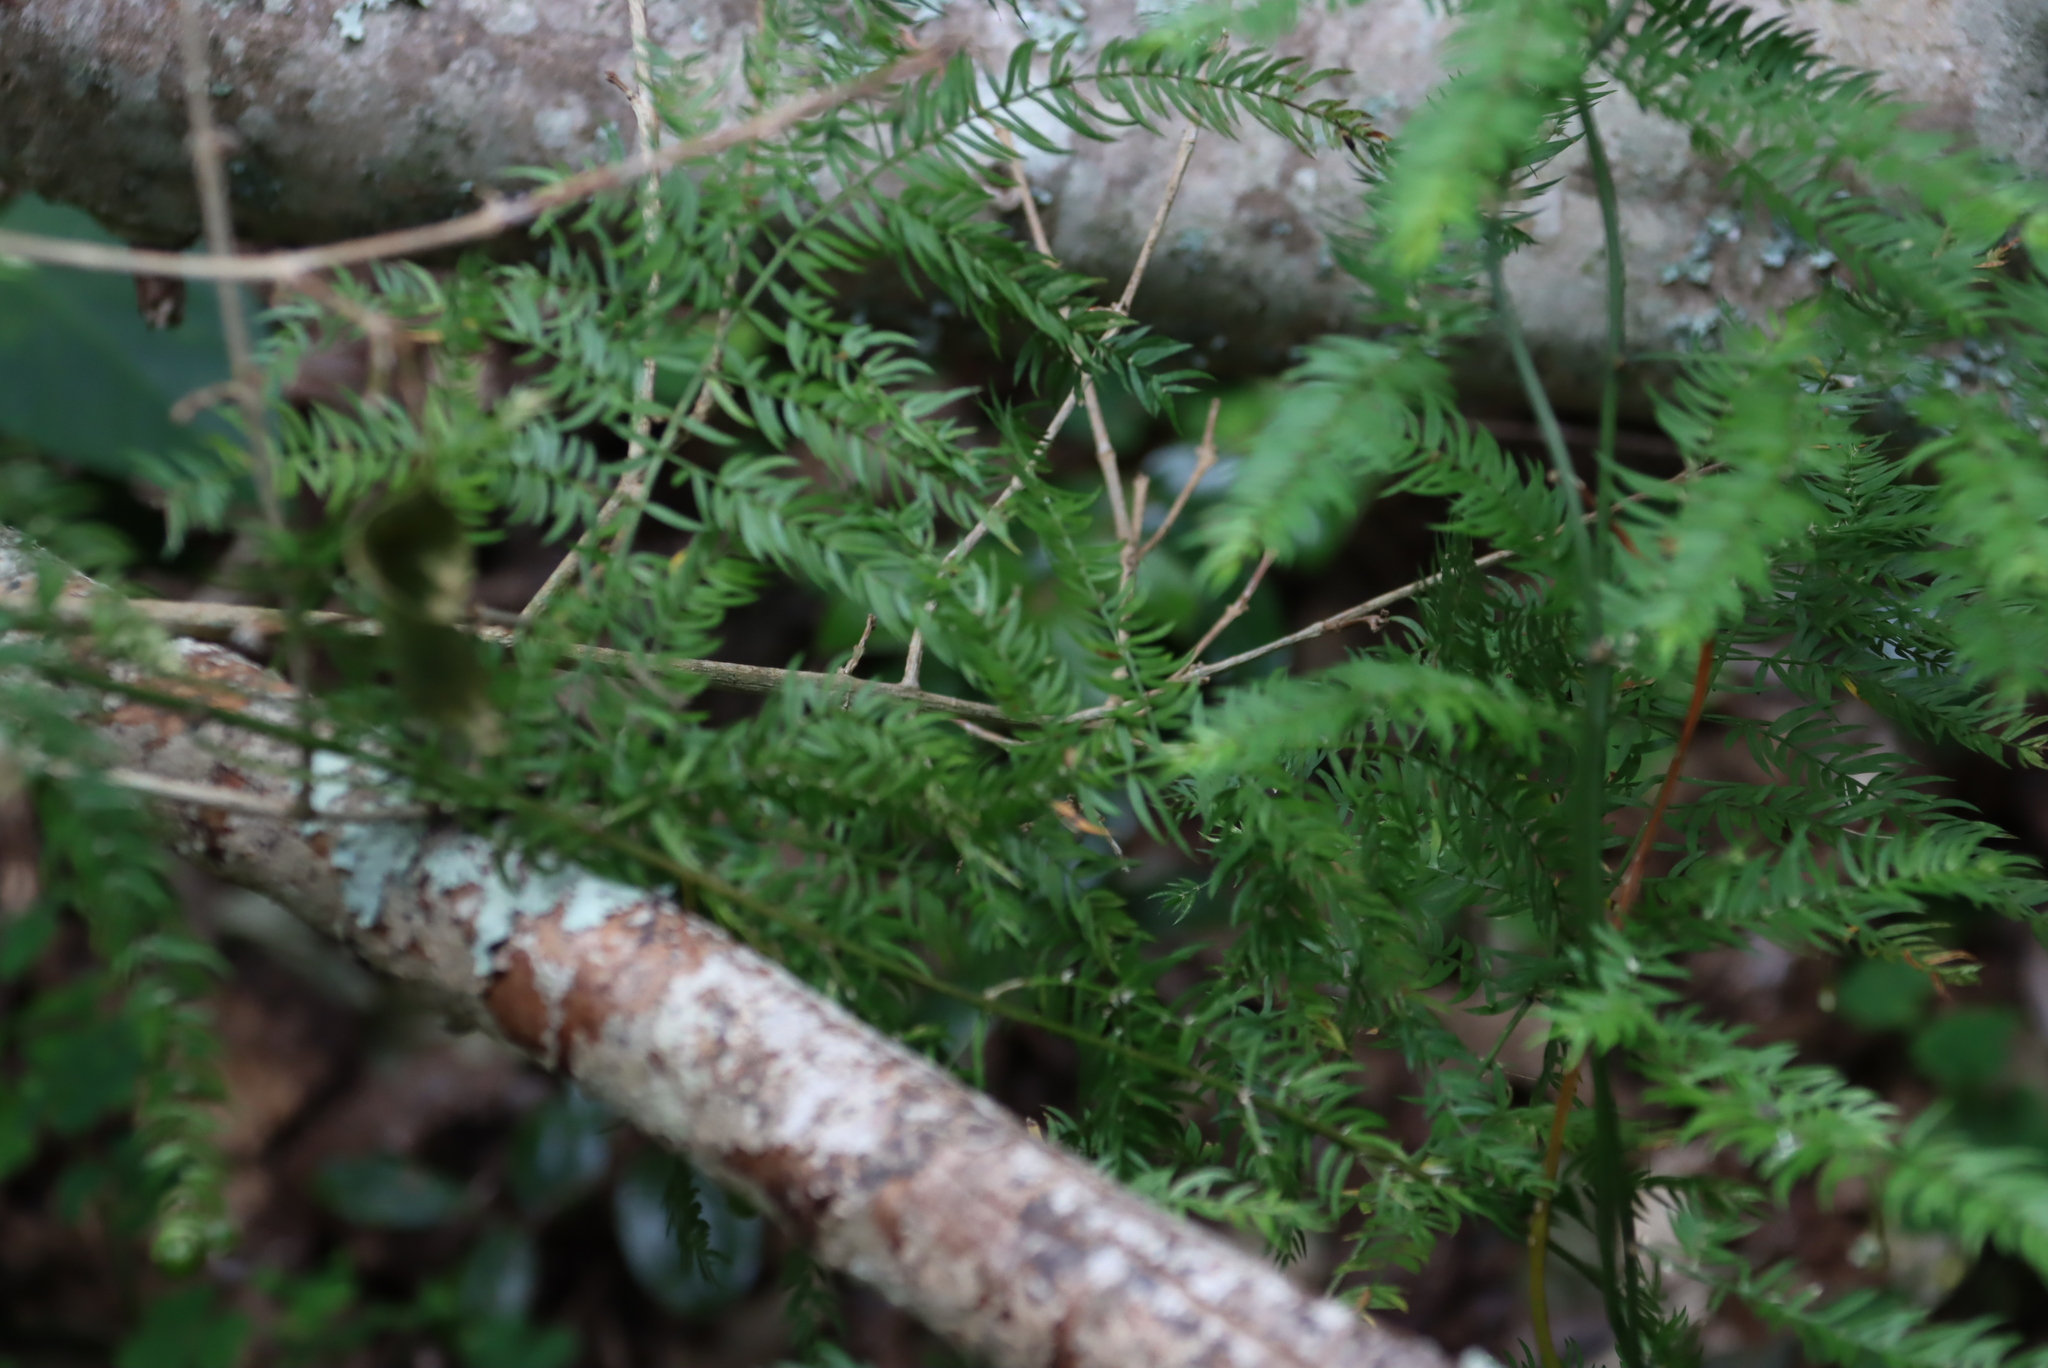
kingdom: Plantae
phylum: Tracheophyta
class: Liliopsida
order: Asparagales
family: Asparagaceae
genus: Asparagus
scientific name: Asparagus scandens
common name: Asparagus-fern
